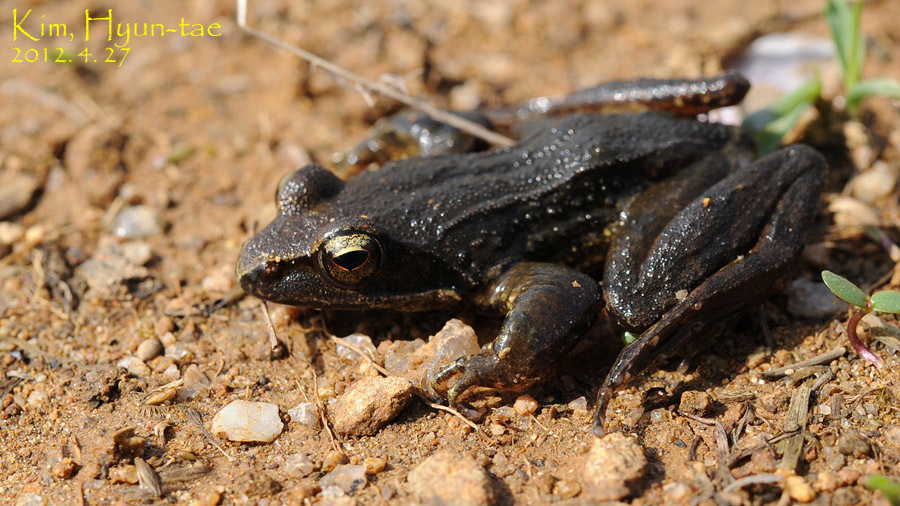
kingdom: Animalia
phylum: Chordata
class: Amphibia
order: Anura
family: Ranidae
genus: Rana
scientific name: Rana coreana
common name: Korean brown frog
